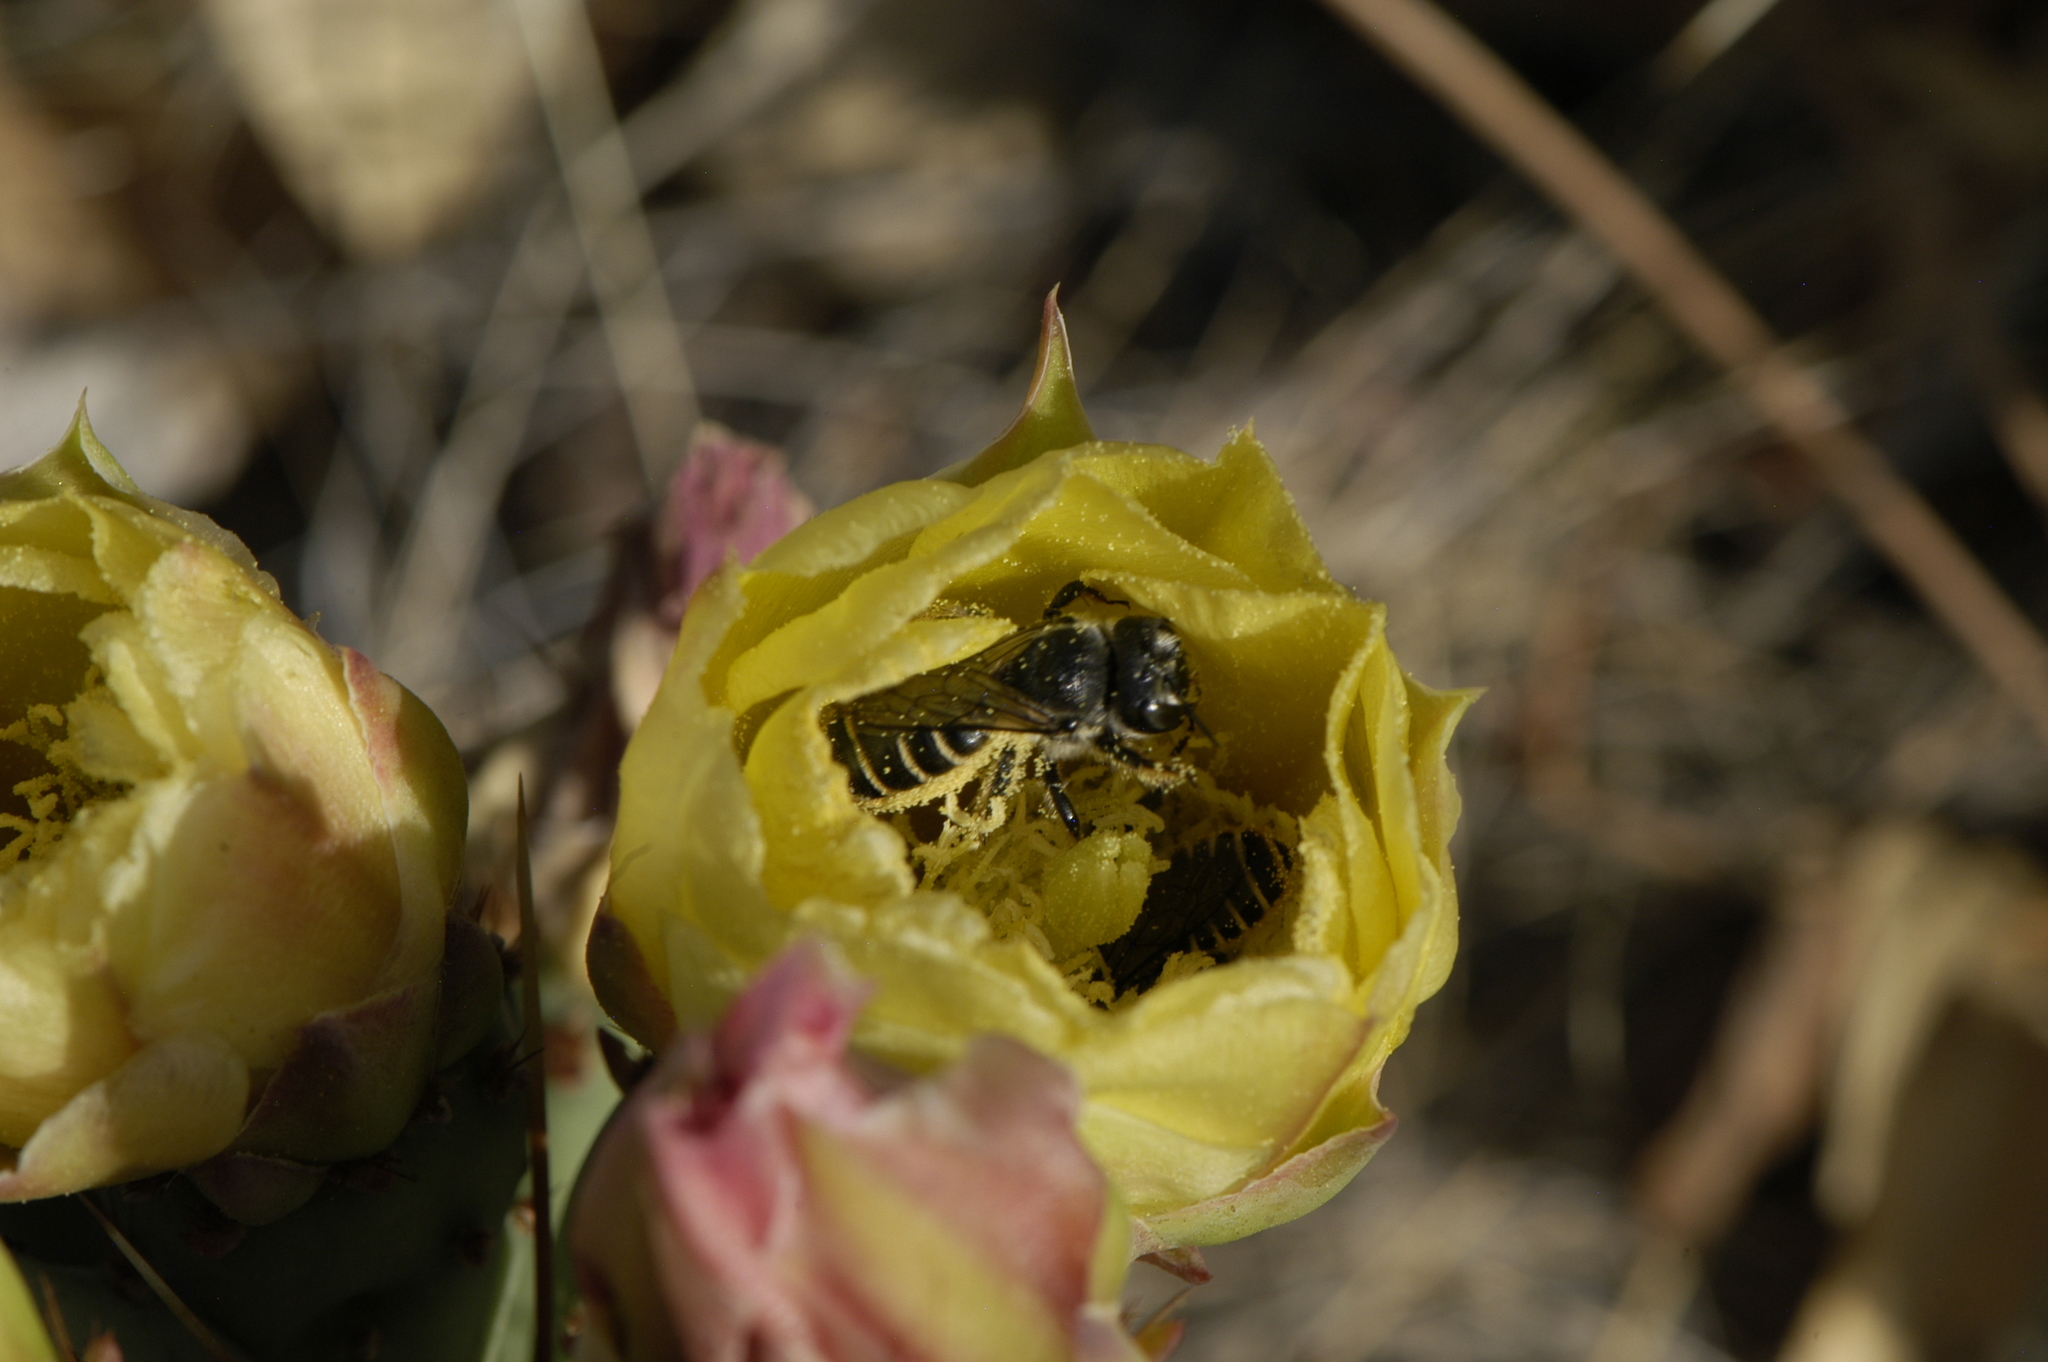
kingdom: Animalia
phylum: Arthropoda
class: Insecta
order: Hymenoptera
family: Megachilidae
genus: Lithurgopsis
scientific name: Lithurgopsis apicalis
